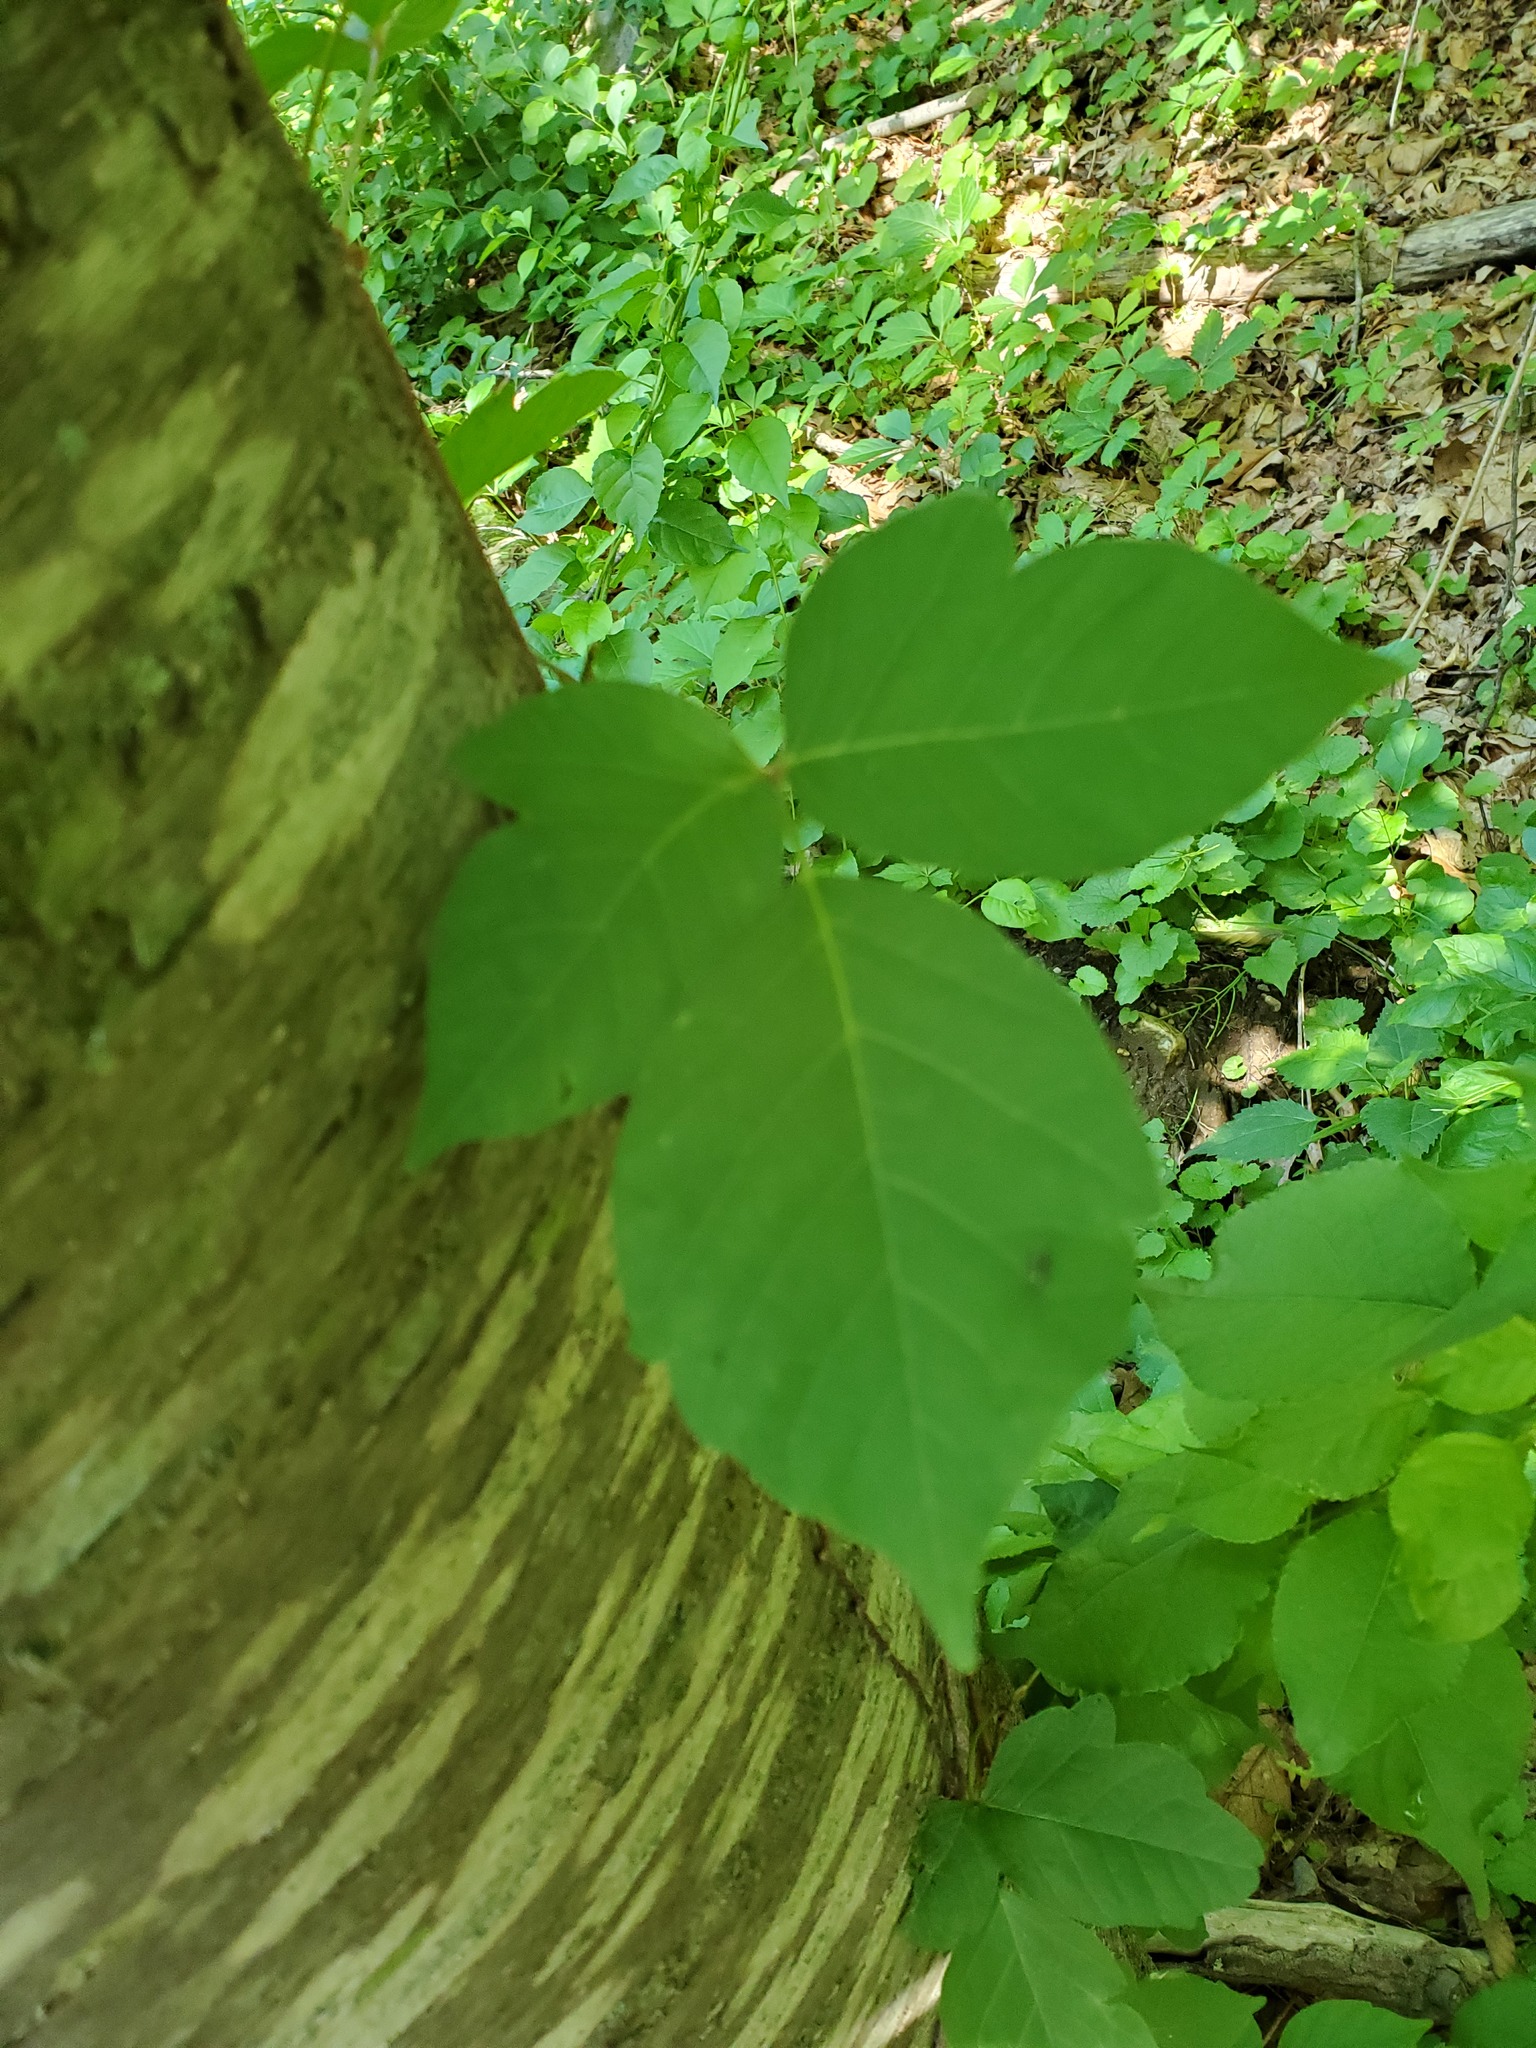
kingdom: Plantae
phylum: Tracheophyta
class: Magnoliopsida
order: Sapindales
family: Anacardiaceae
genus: Toxicodendron
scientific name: Toxicodendron radicans
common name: Poison ivy
